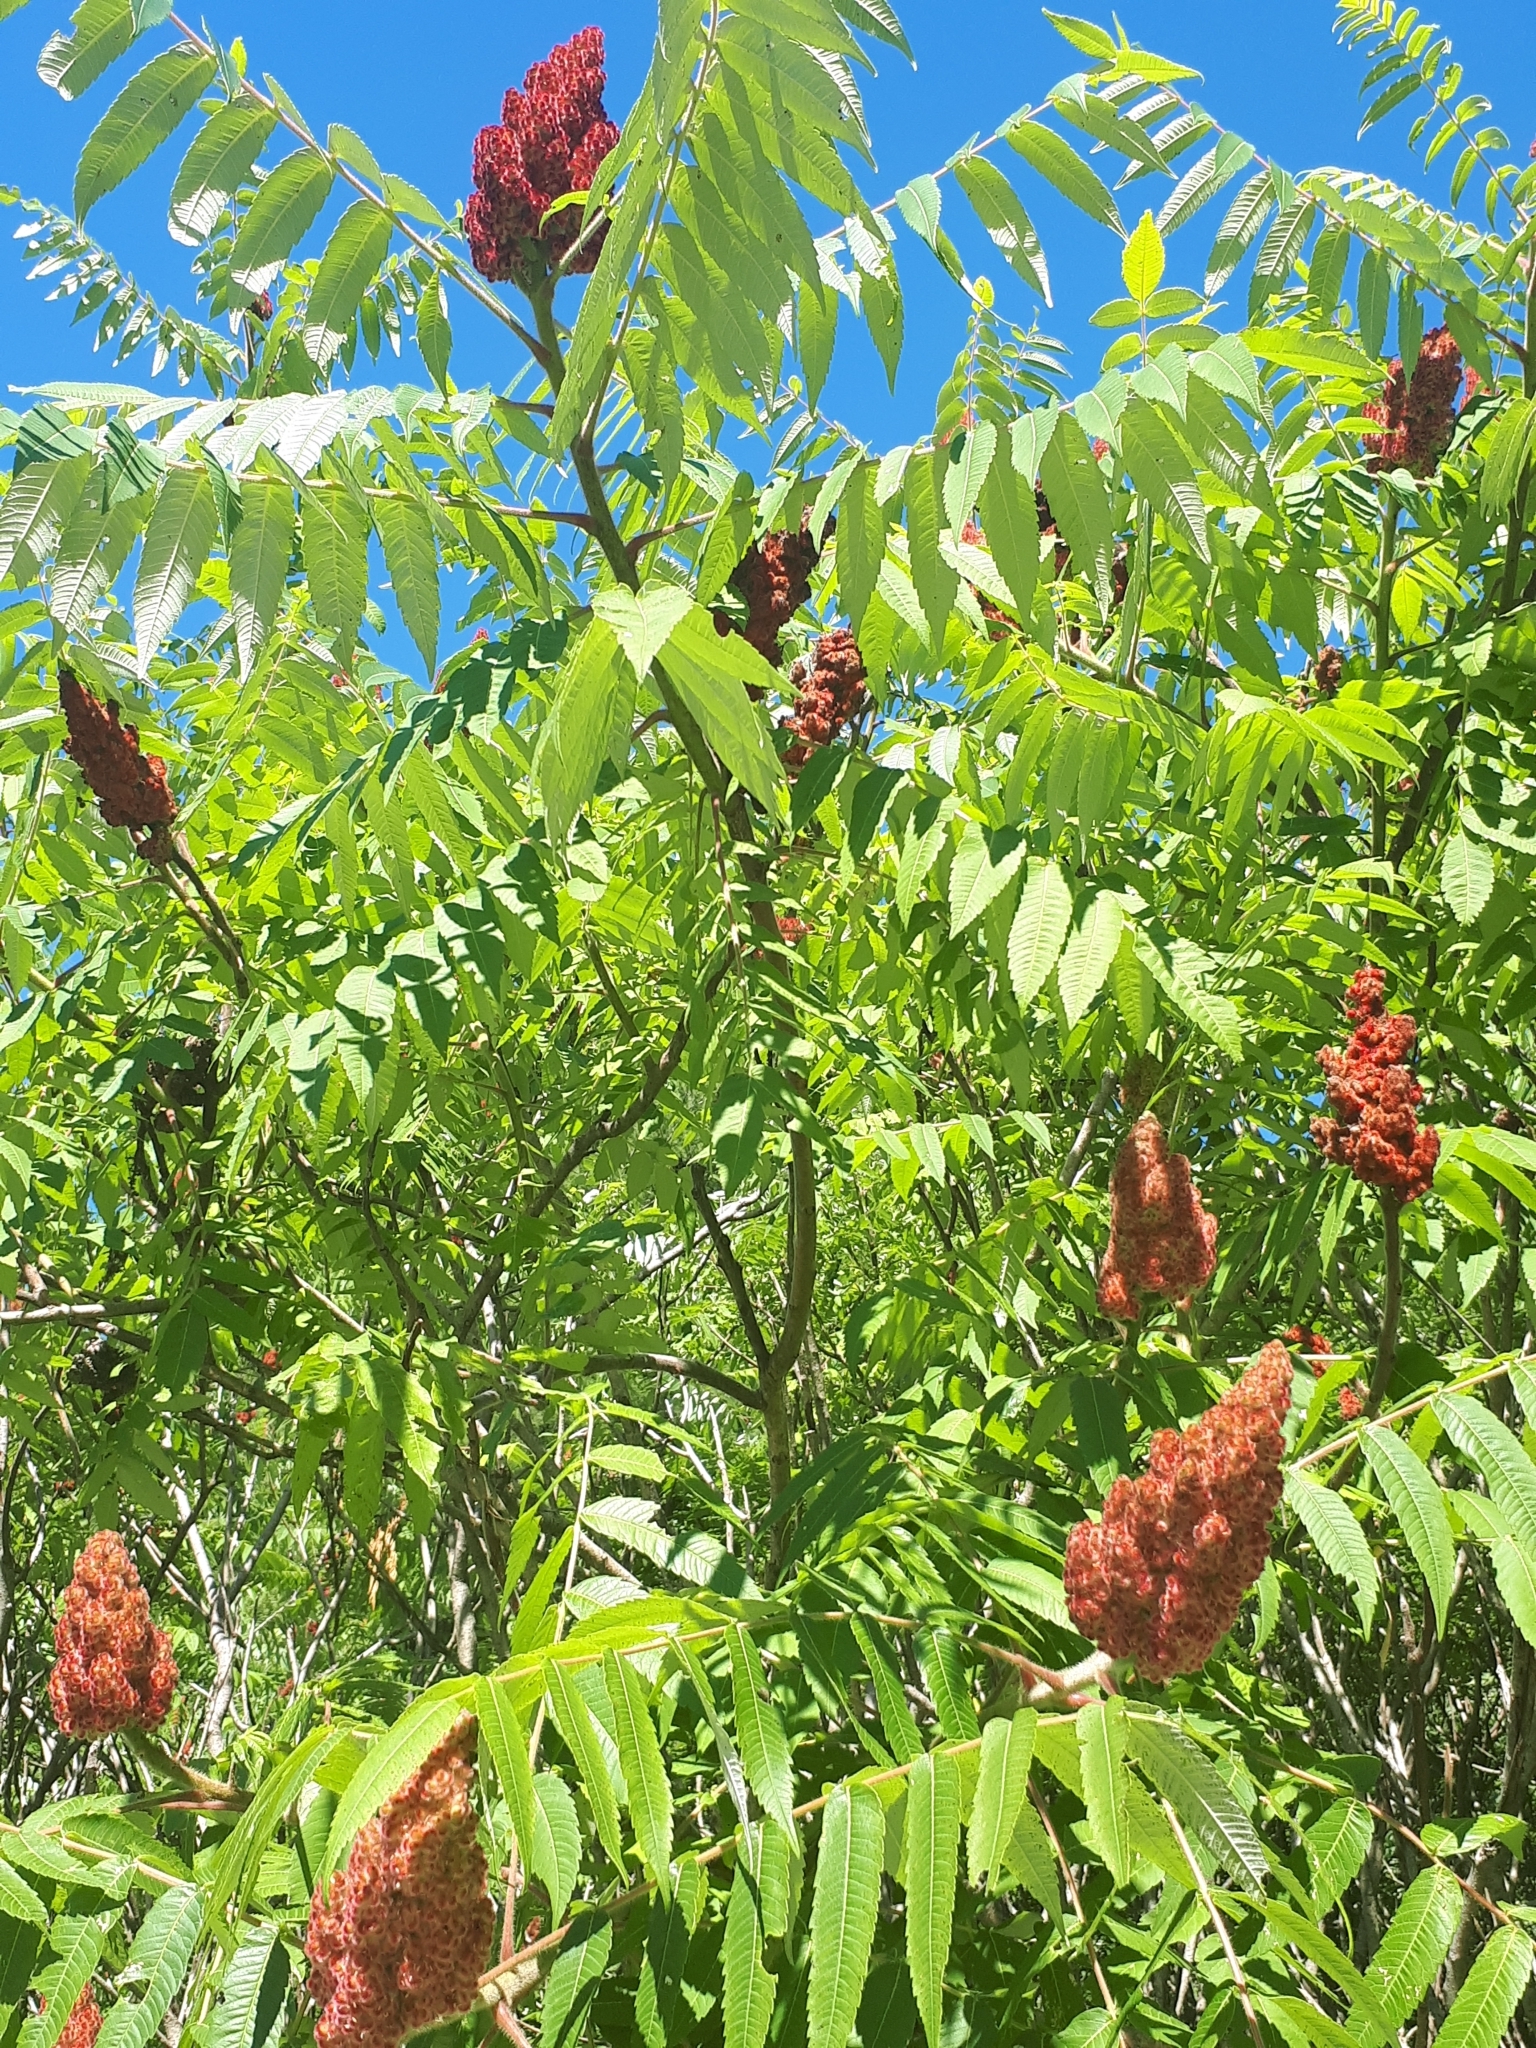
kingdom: Plantae
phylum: Tracheophyta
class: Magnoliopsida
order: Sapindales
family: Anacardiaceae
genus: Rhus
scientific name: Rhus typhina
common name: Staghorn sumac
